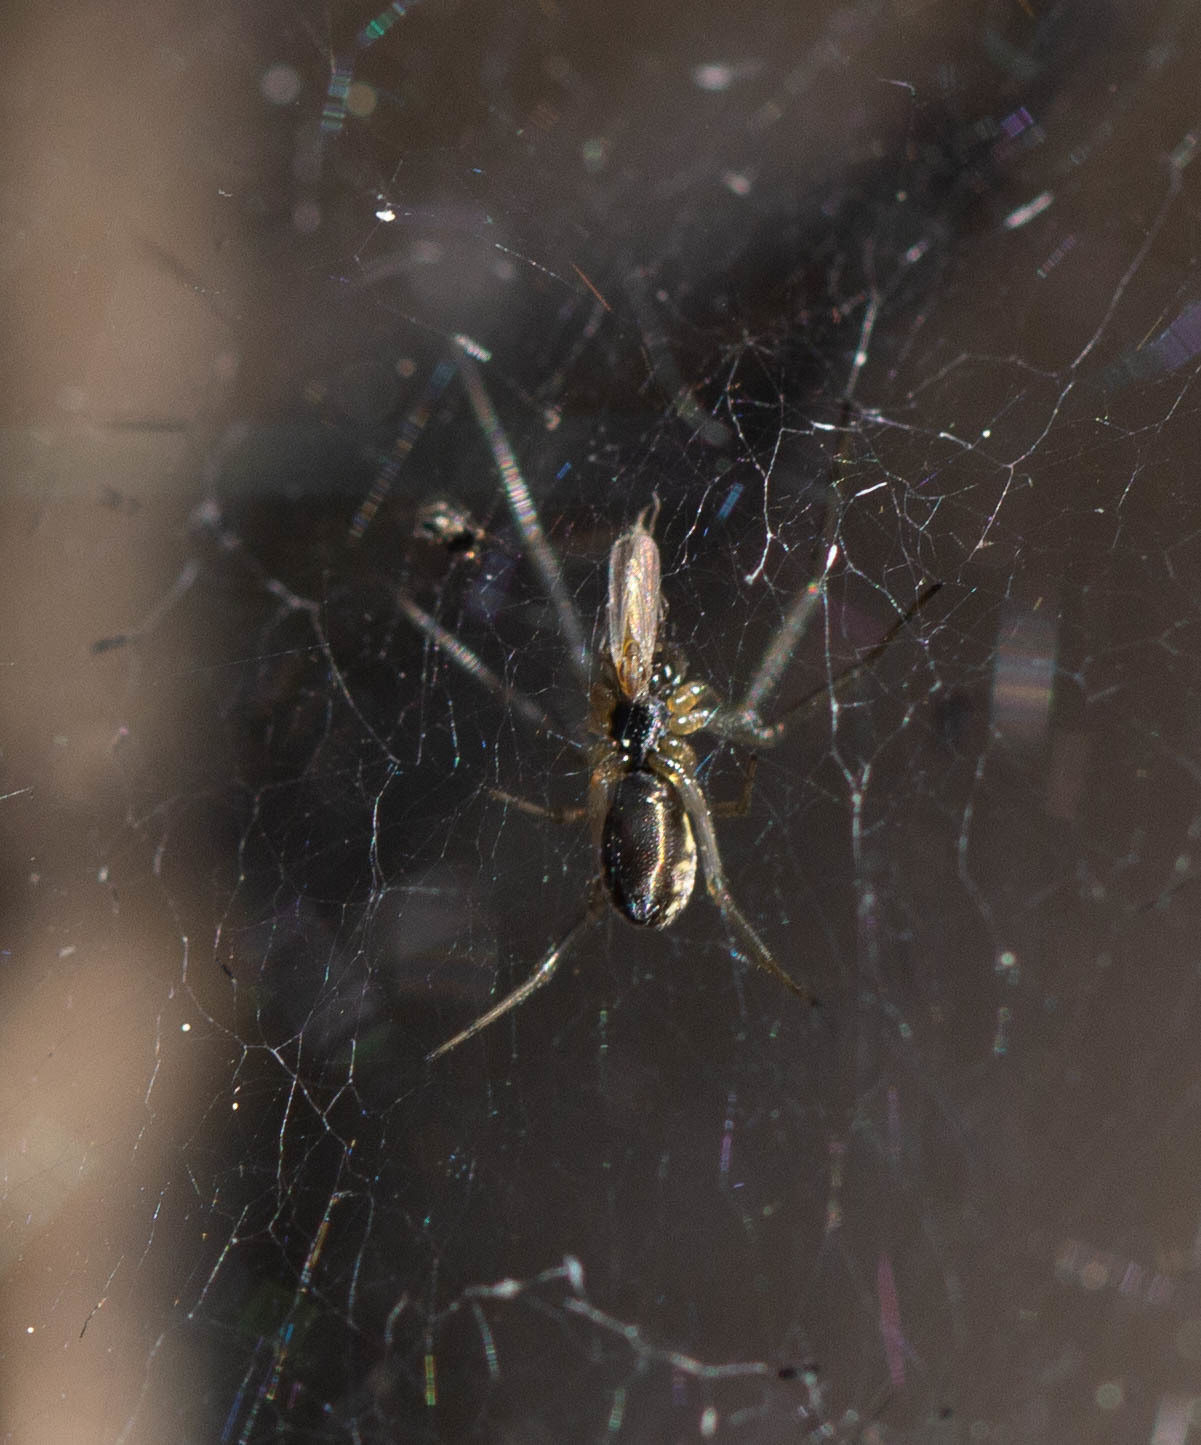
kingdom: Animalia
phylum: Arthropoda
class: Arachnida
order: Araneae
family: Linyphiidae
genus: Frontinella
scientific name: Frontinella pyramitela
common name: Bowl-and-doily spider
